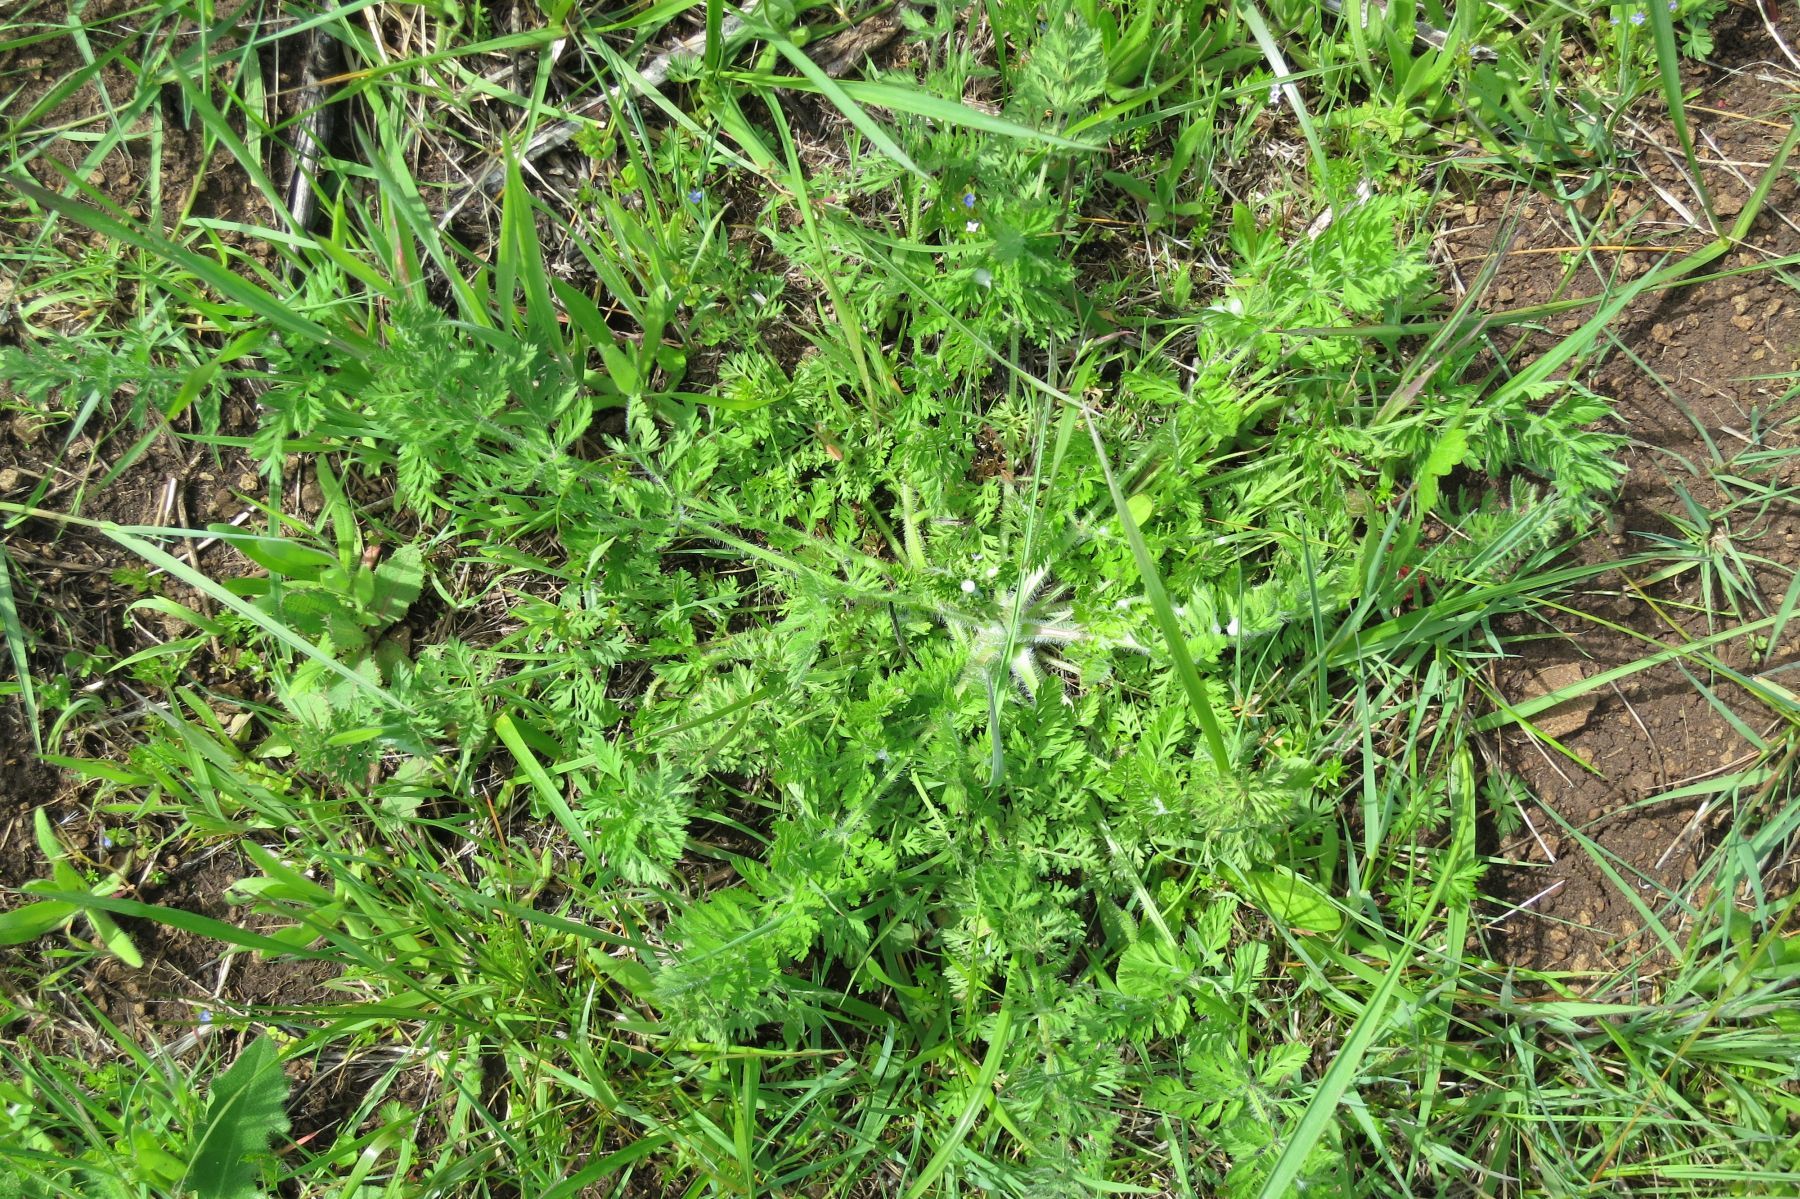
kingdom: Plantae
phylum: Tracheophyta
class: Magnoliopsida
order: Apiales
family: Apiaceae
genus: Daucus
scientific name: Daucus carota
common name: Wild carrot
